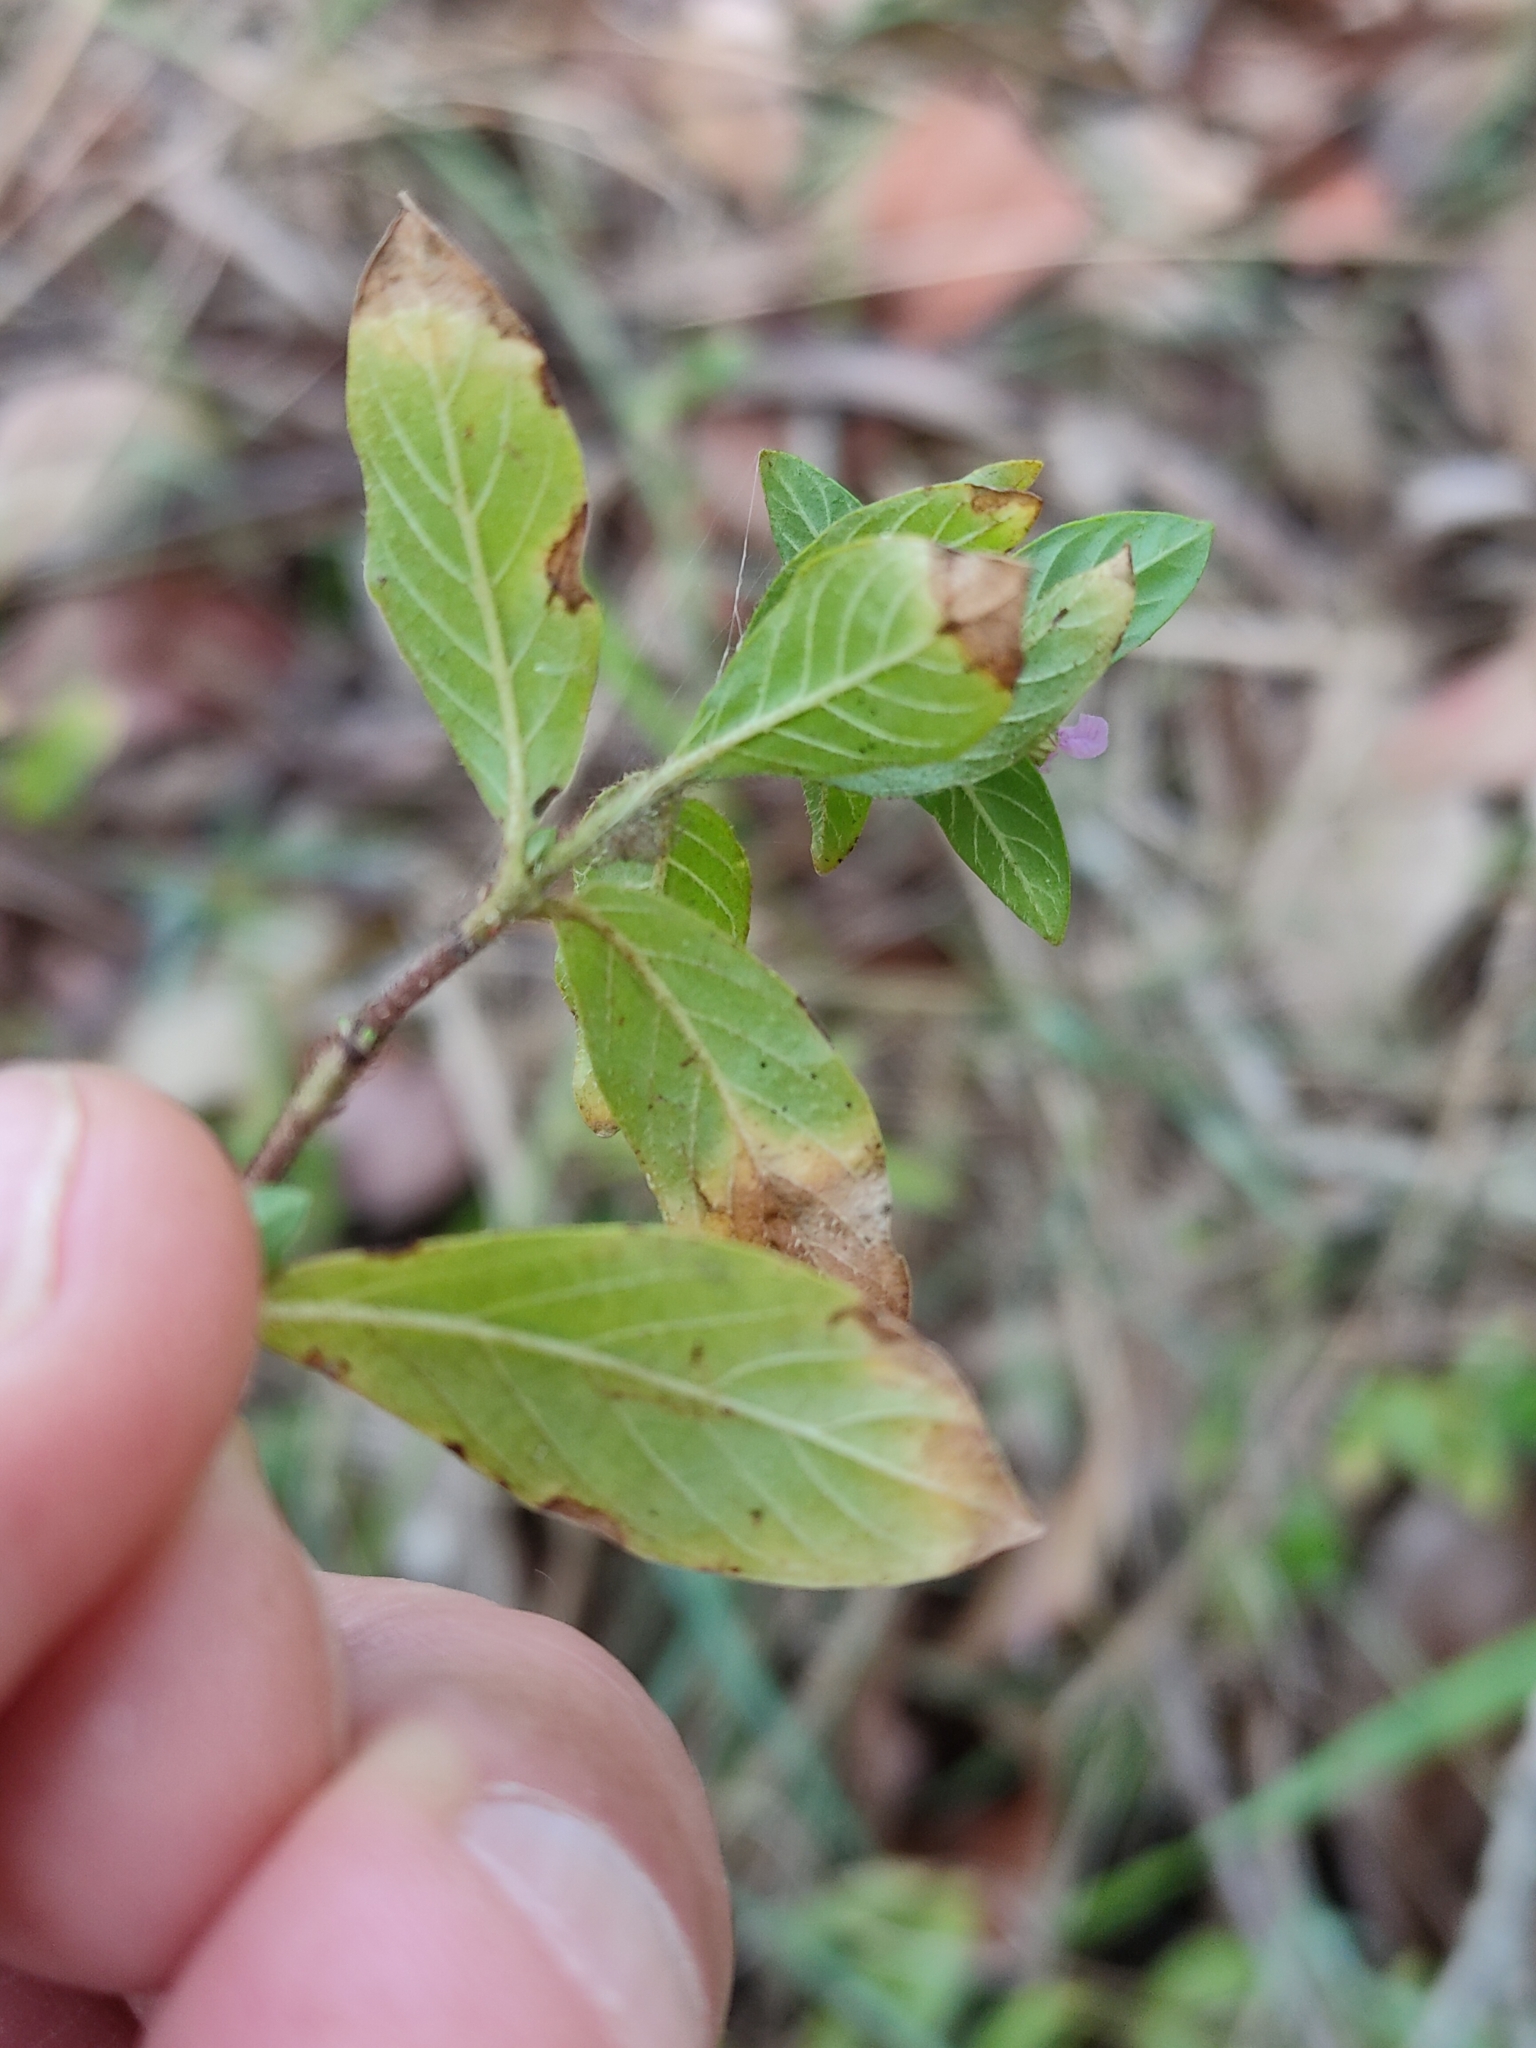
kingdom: Plantae
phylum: Tracheophyta
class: Magnoliopsida
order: Myrtales
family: Lythraceae
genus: Cuphea
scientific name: Cuphea carthagenensis
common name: Colombian waxweed
